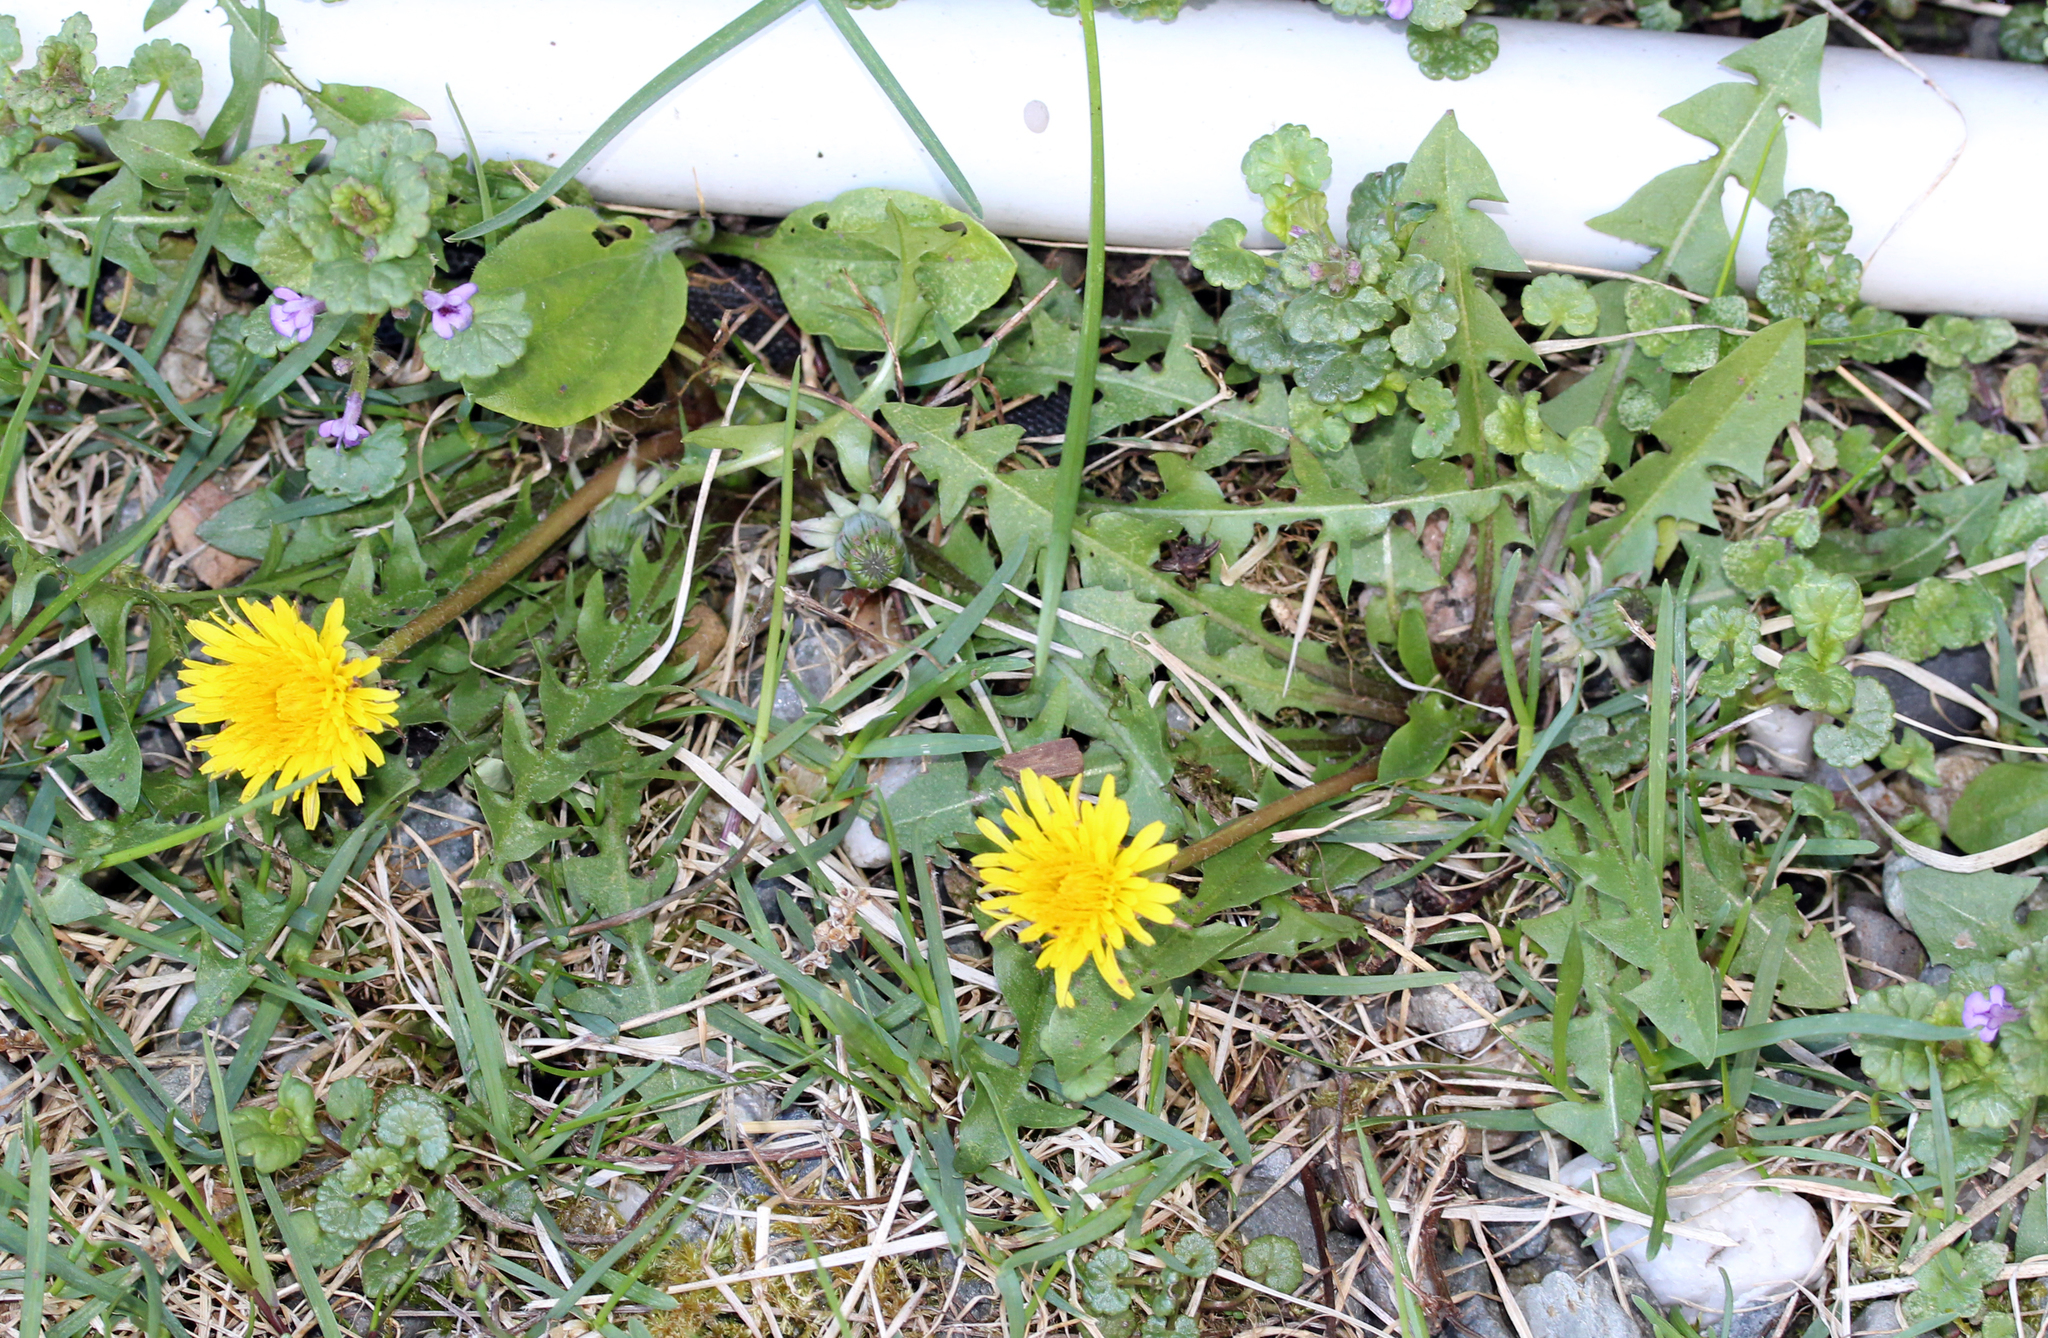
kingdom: Plantae
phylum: Tracheophyta
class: Magnoliopsida
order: Asterales
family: Asteraceae
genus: Taraxacum
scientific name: Taraxacum officinale
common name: Common dandelion
